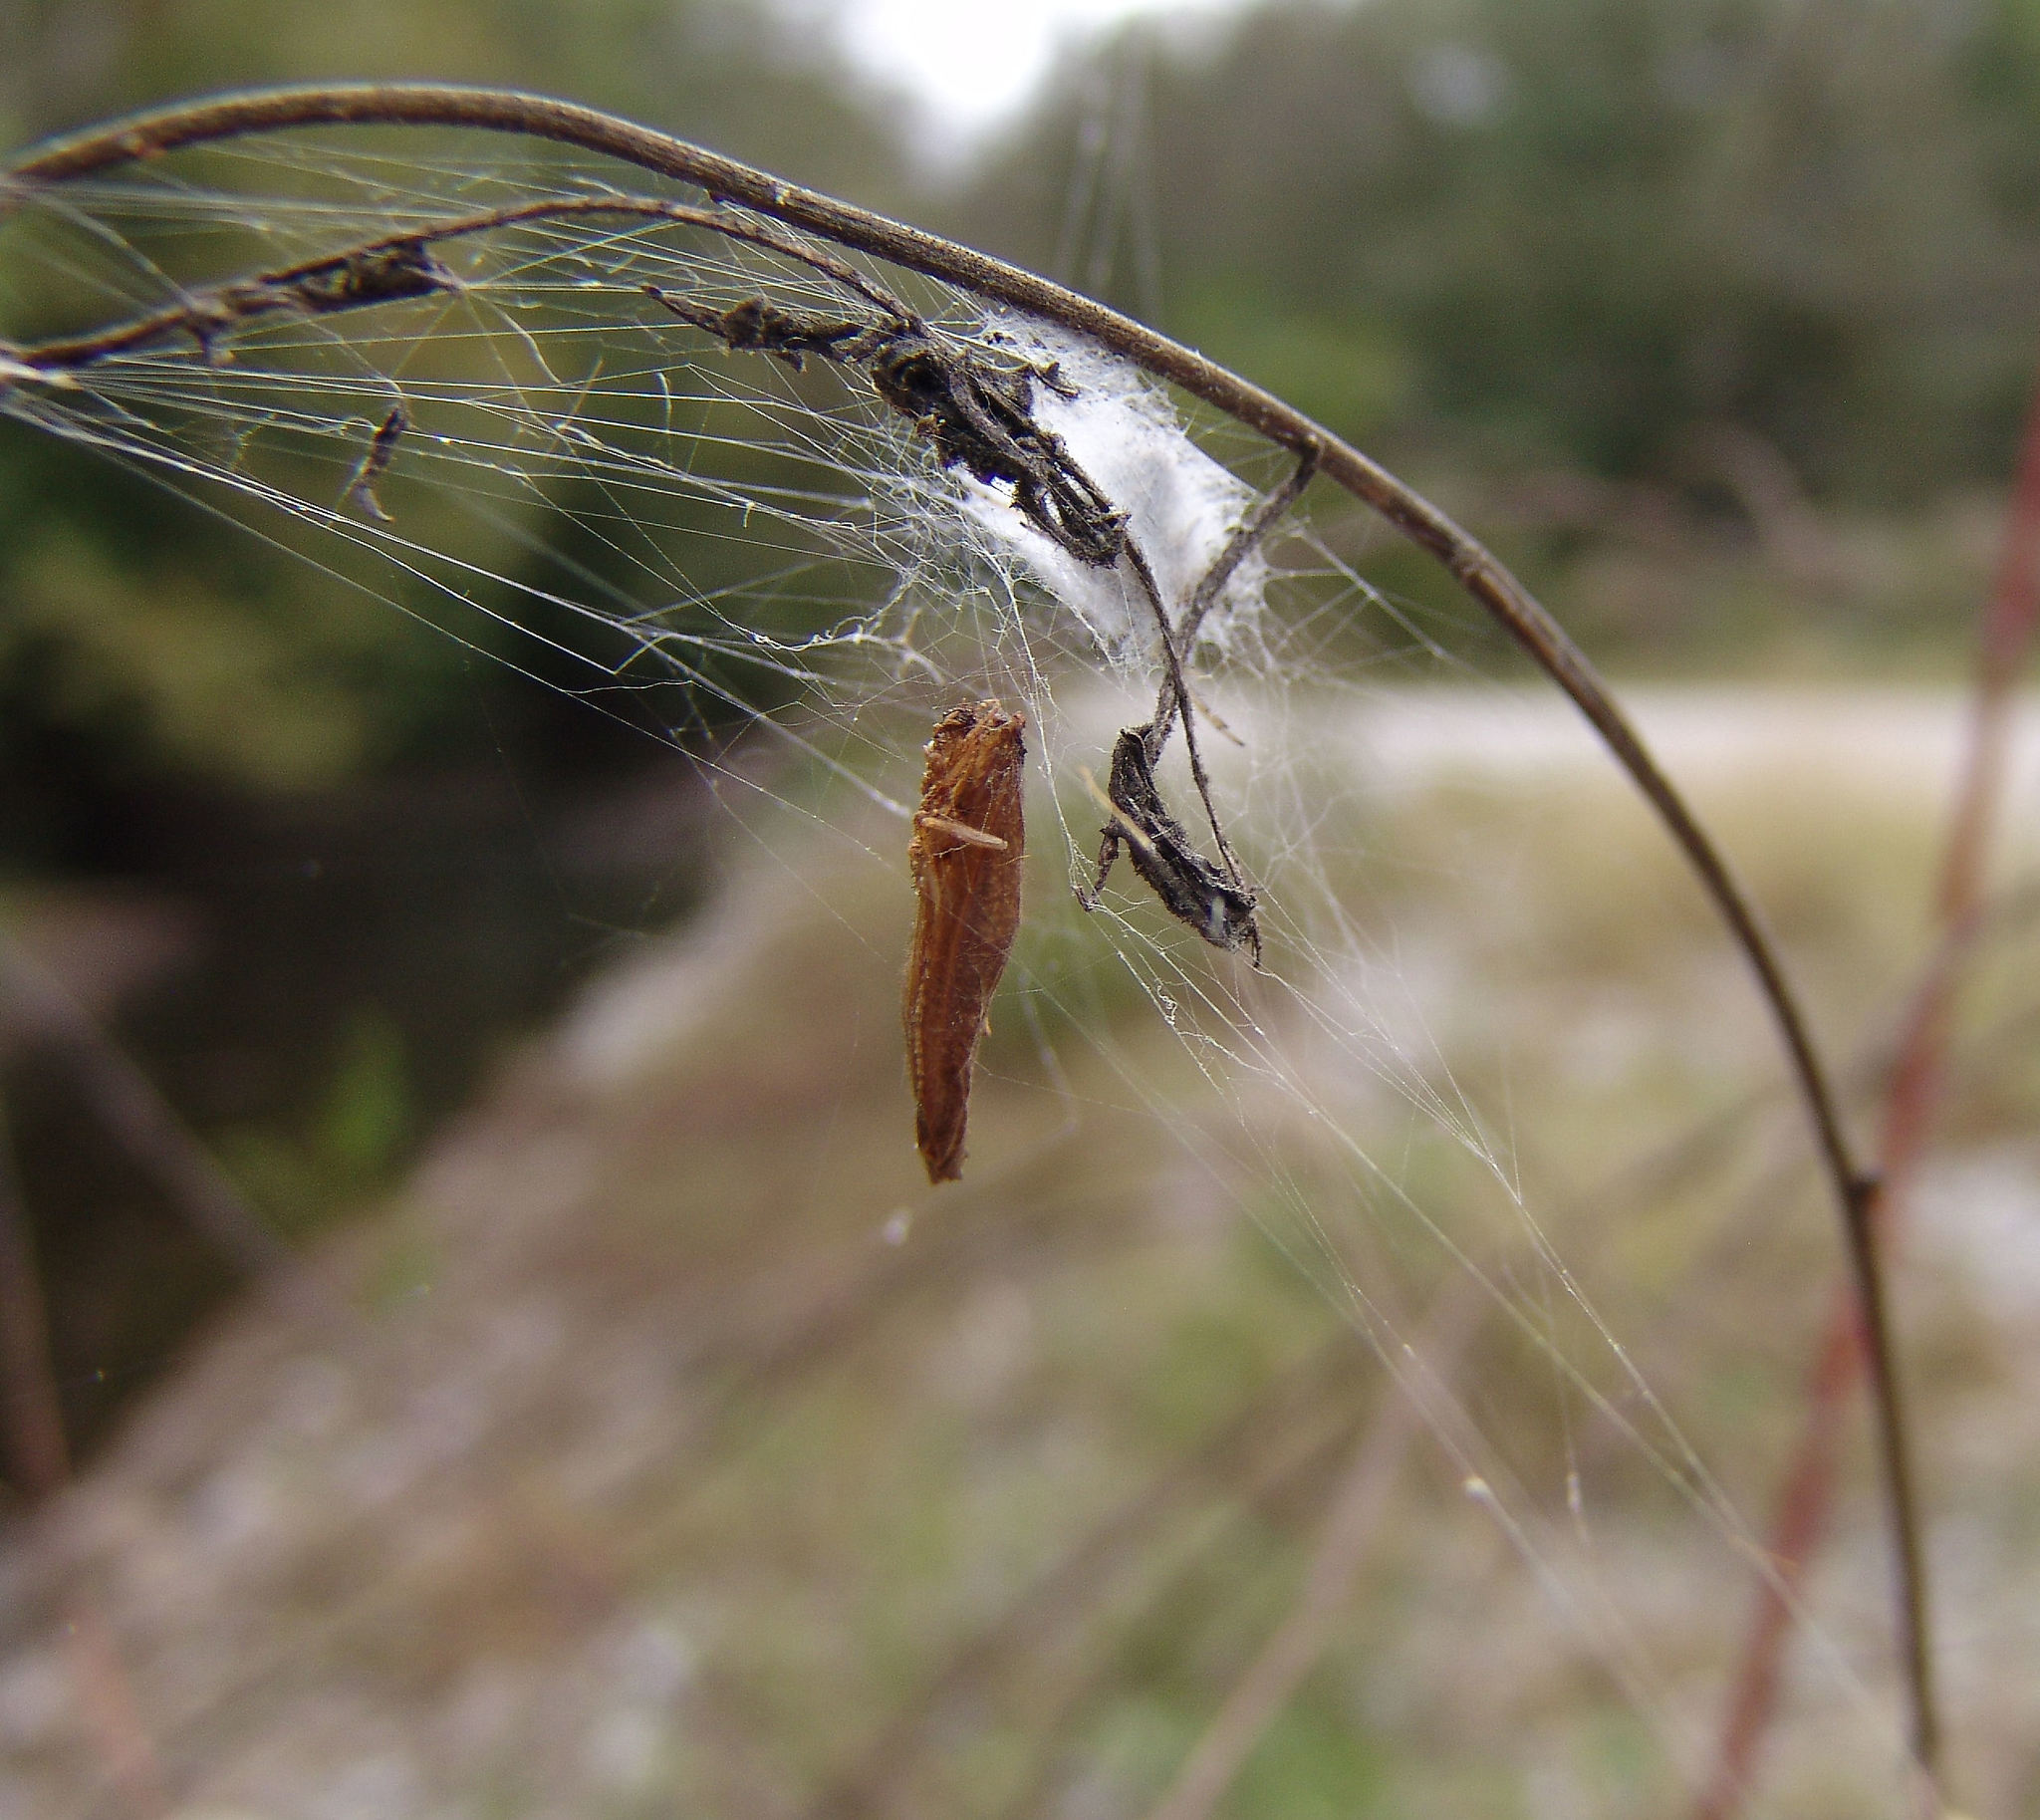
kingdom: Animalia
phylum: Arthropoda
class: Arachnida
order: Araneae
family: Araneidae
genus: Neoscona
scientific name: Neoscona arabesca
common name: Orb weavers
